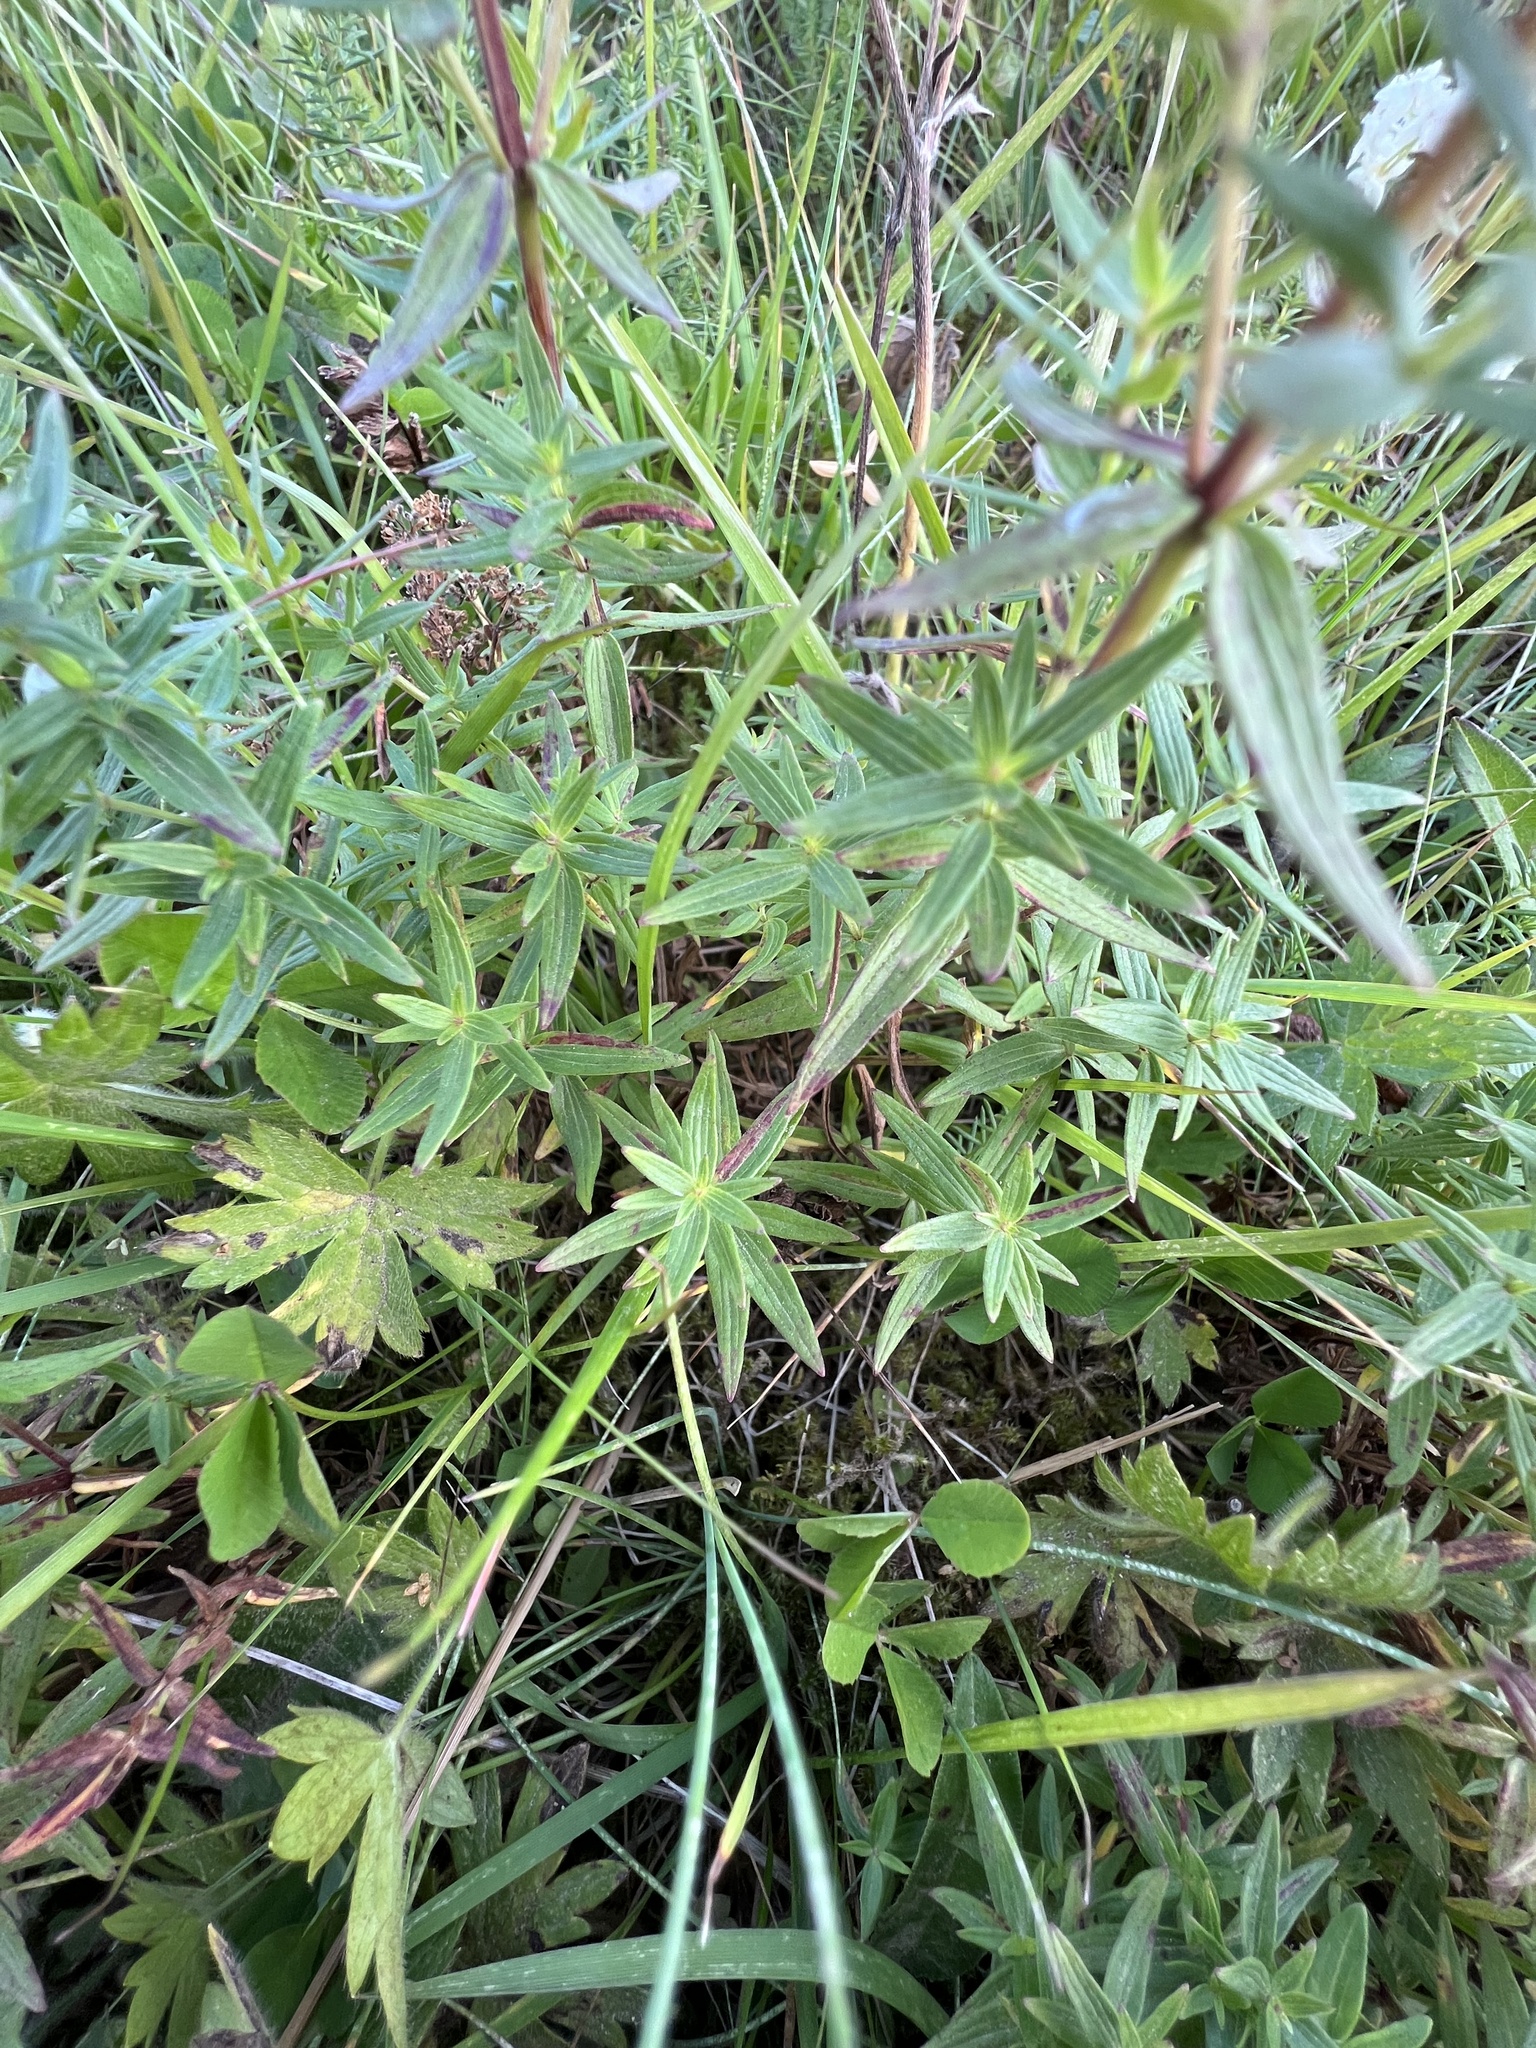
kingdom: Plantae
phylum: Tracheophyta
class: Magnoliopsida
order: Gentianales
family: Rubiaceae
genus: Galium
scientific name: Galium boreale
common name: Northern bedstraw
